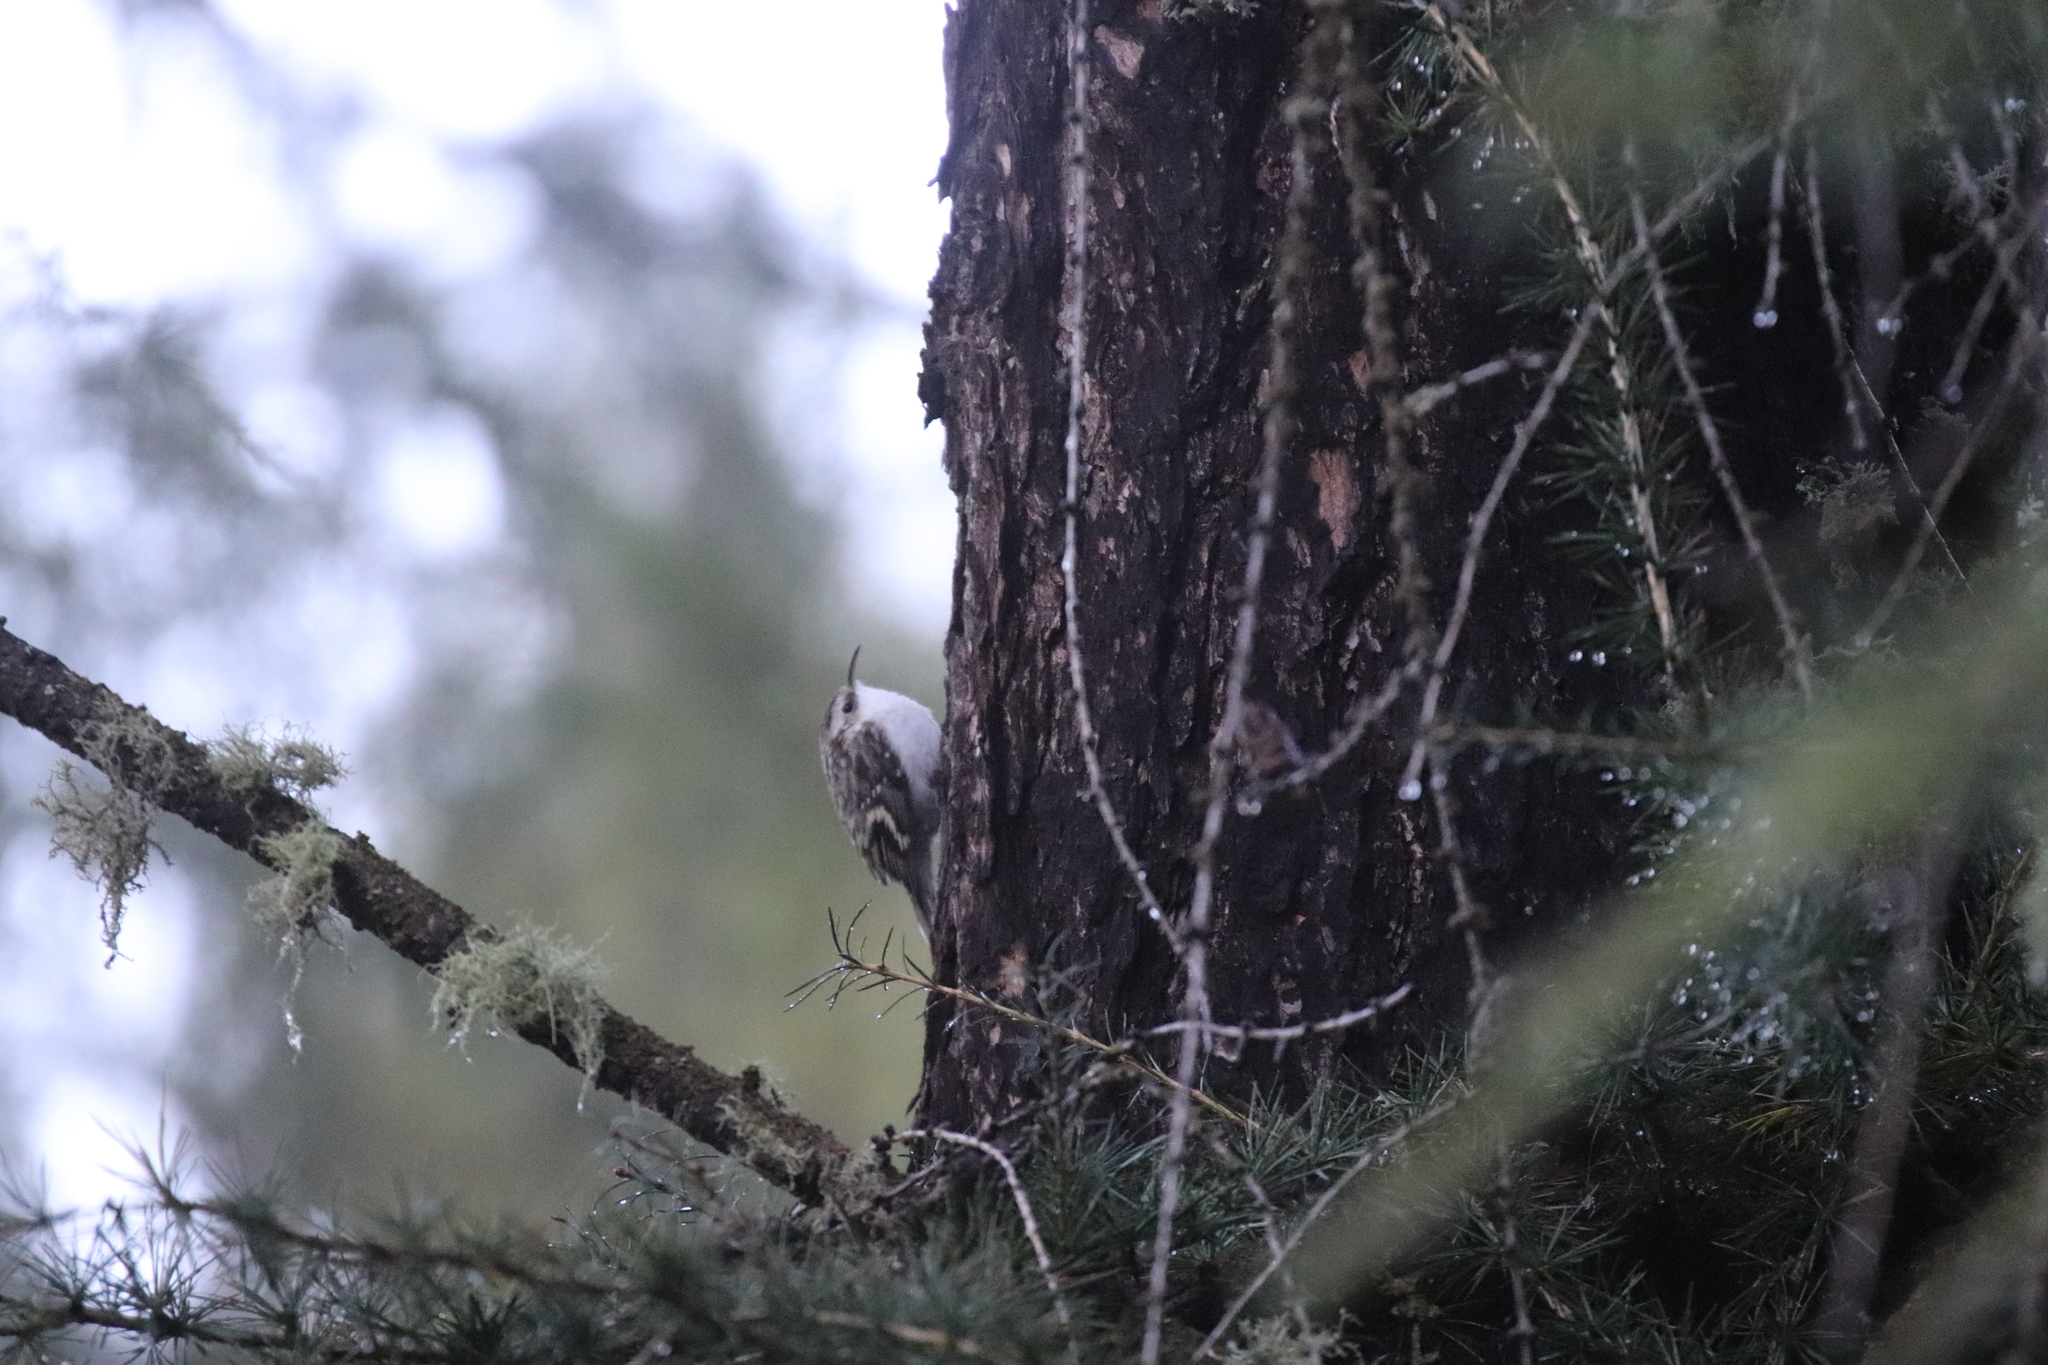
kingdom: Animalia
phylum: Chordata
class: Aves
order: Passeriformes
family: Certhiidae
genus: Certhia
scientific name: Certhia familiaris
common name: Eurasian treecreeper
